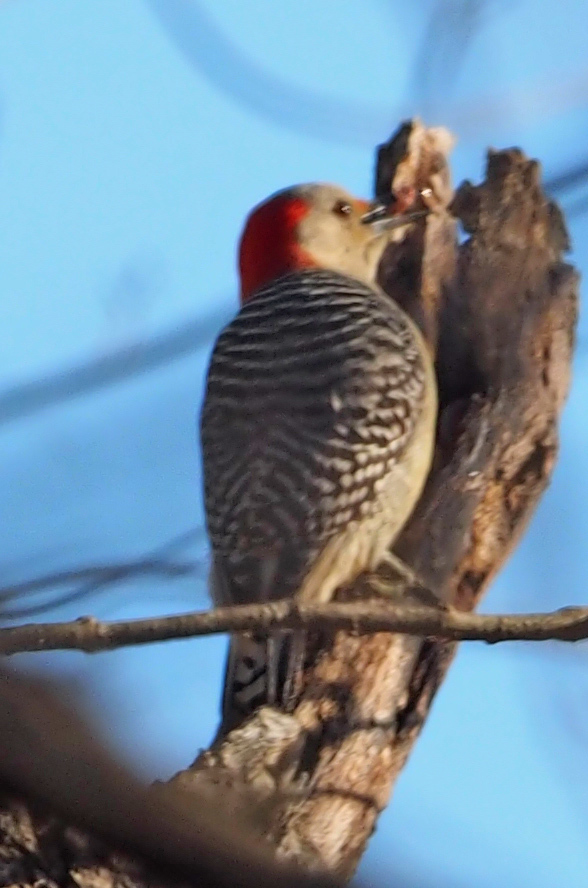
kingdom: Animalia
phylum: Chordata
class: Aves
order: Piciformes
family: Picidae
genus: Melanerpes
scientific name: Melanerpes carolinus
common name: Red-bellied woodpecker
